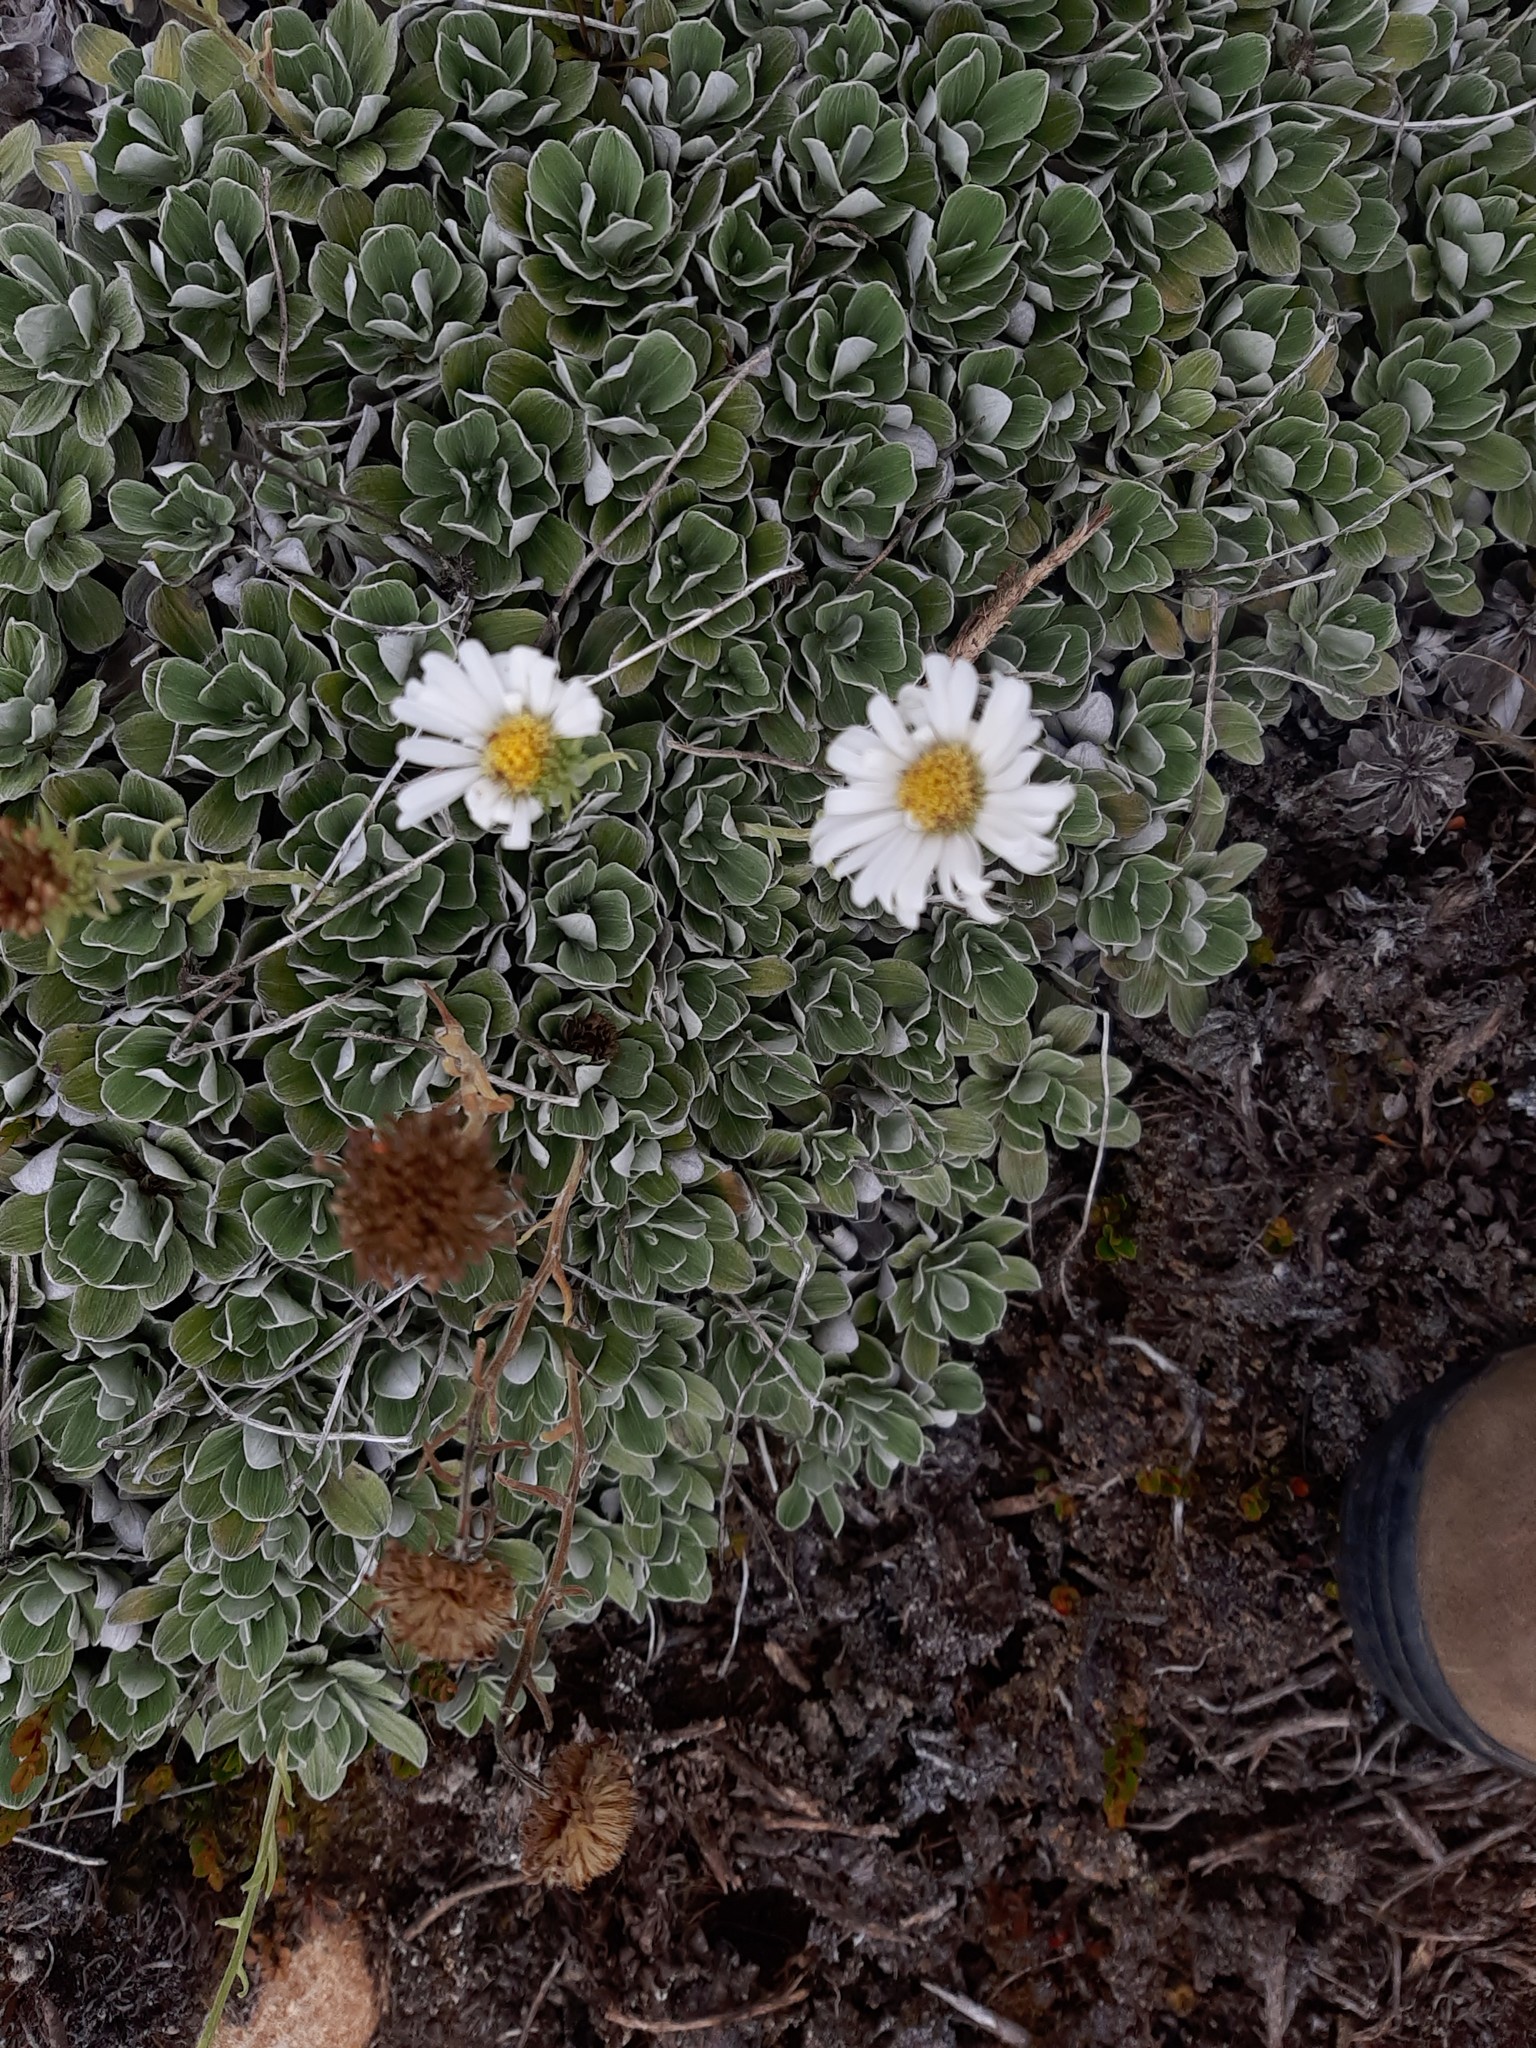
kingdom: Plantae
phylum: Tracheophyta
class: Magnoliopsida
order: Asterales
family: Asteraceae
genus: Celmisia
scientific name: Celmisia discolor
